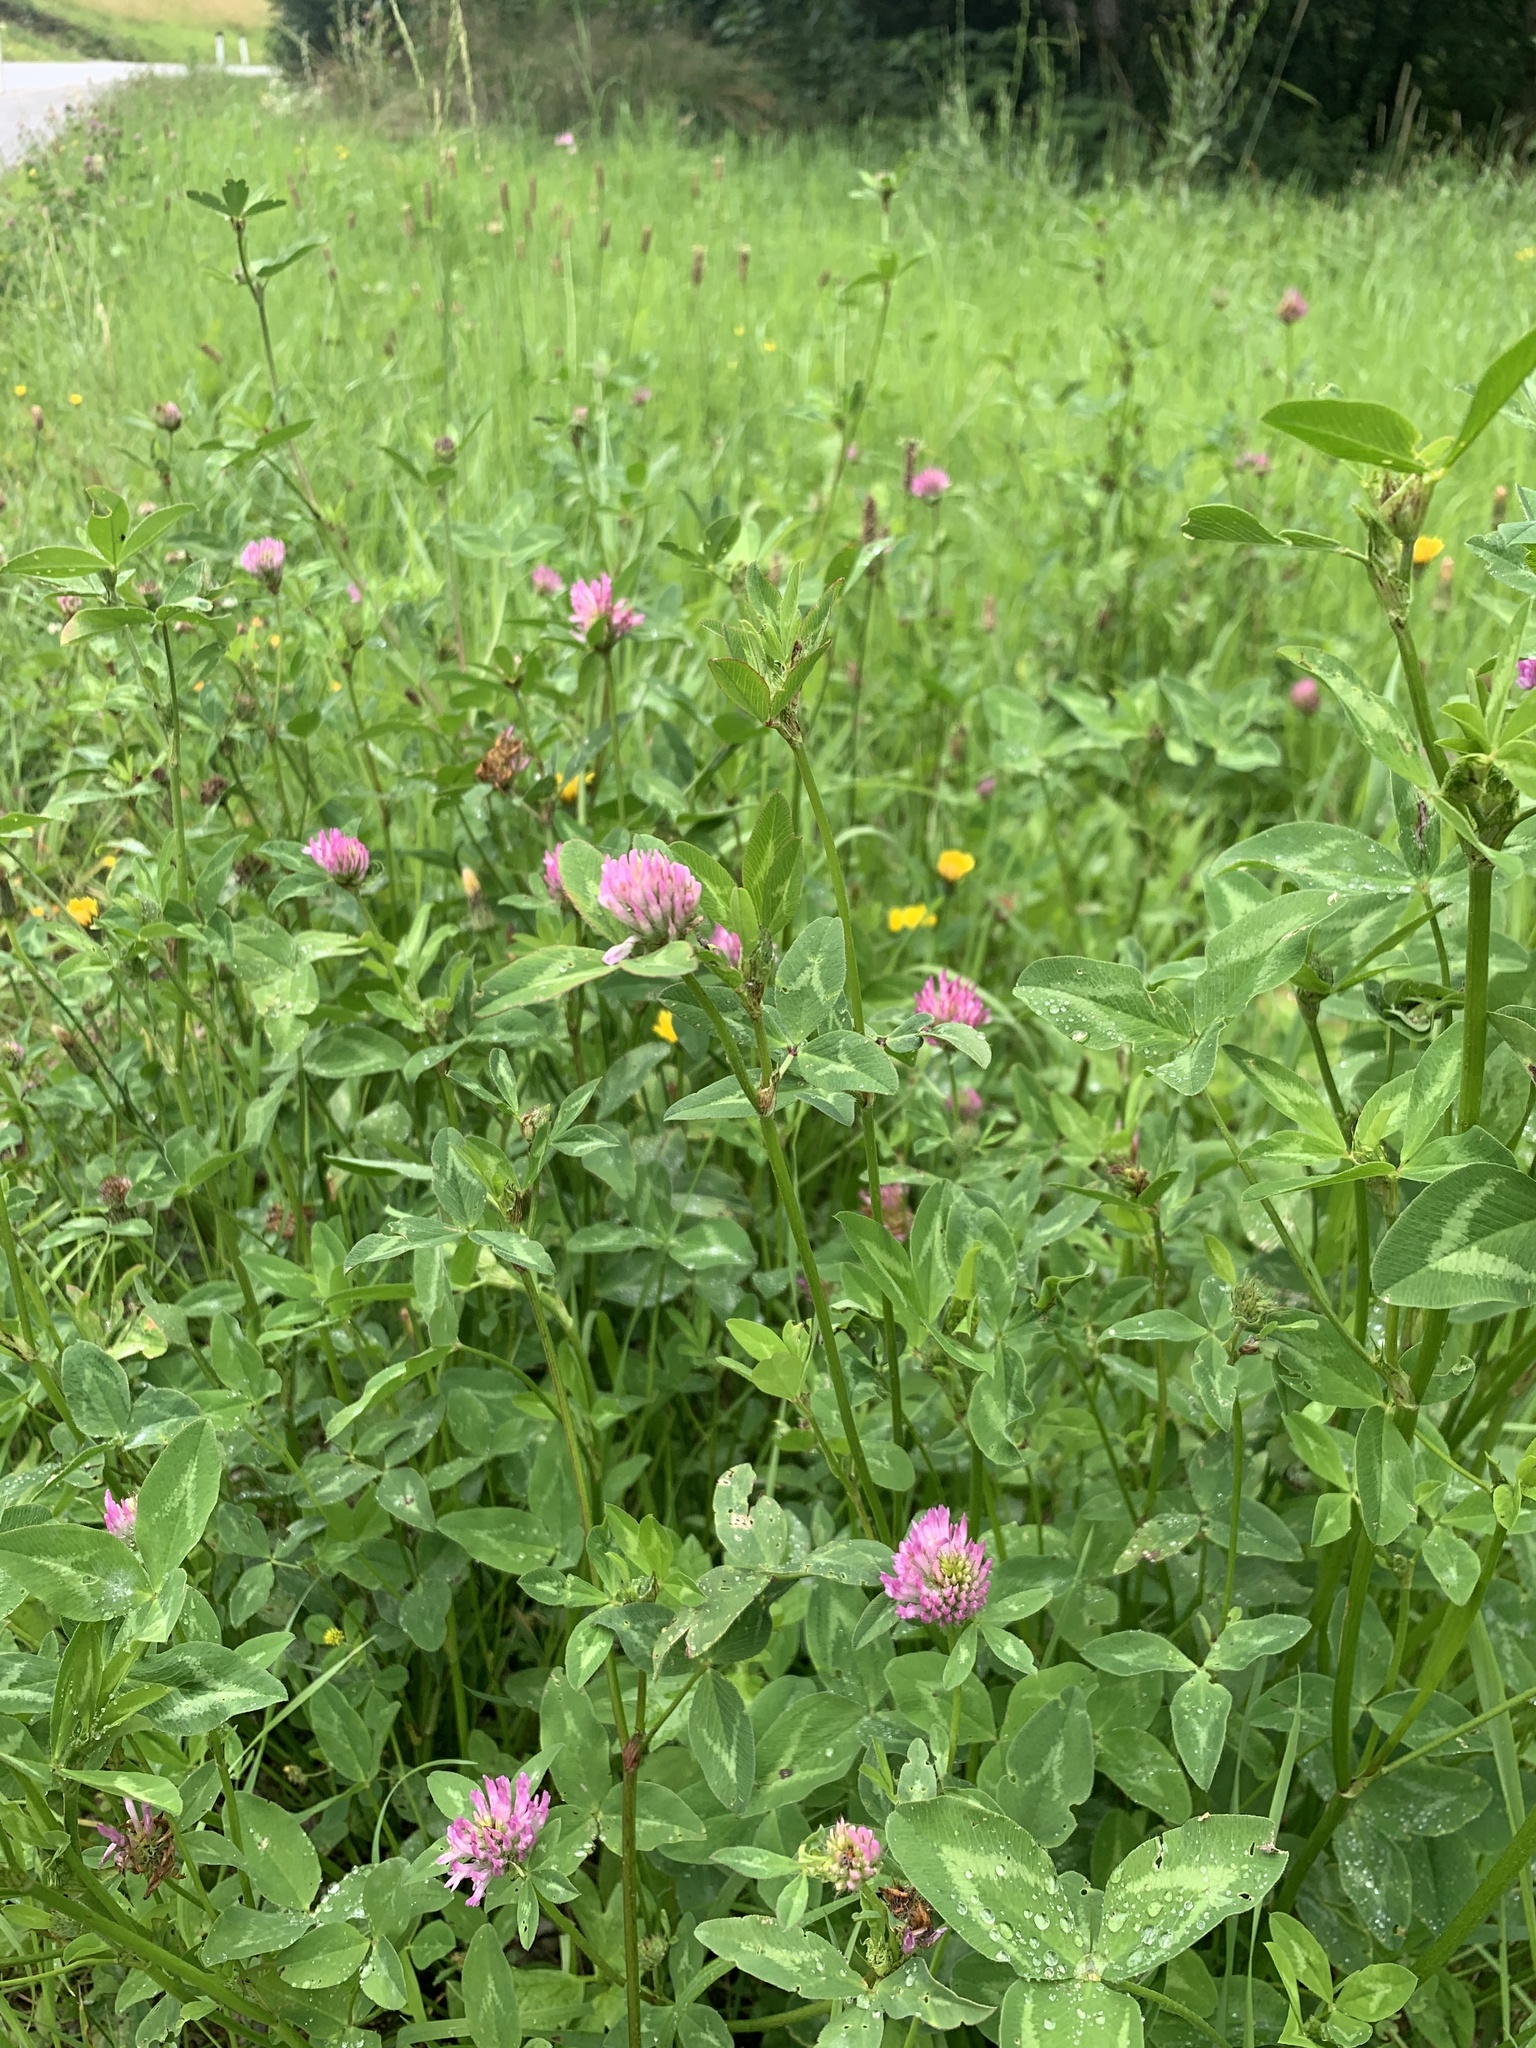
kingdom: Plantae
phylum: Tracheophyta
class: Magnoliopsida
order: Fabales
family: Fabaceae
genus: Trifolium
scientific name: Trifolium pratense
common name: Red clover
